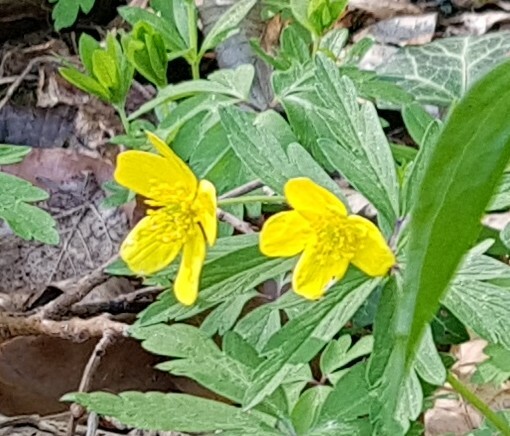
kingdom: Plantae
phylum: Tracheophyta
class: Magnoliopsida
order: Ranunculales
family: Ranunculaceae
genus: Anemone
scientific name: Anemone ranunculoides
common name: Yellow anemone
